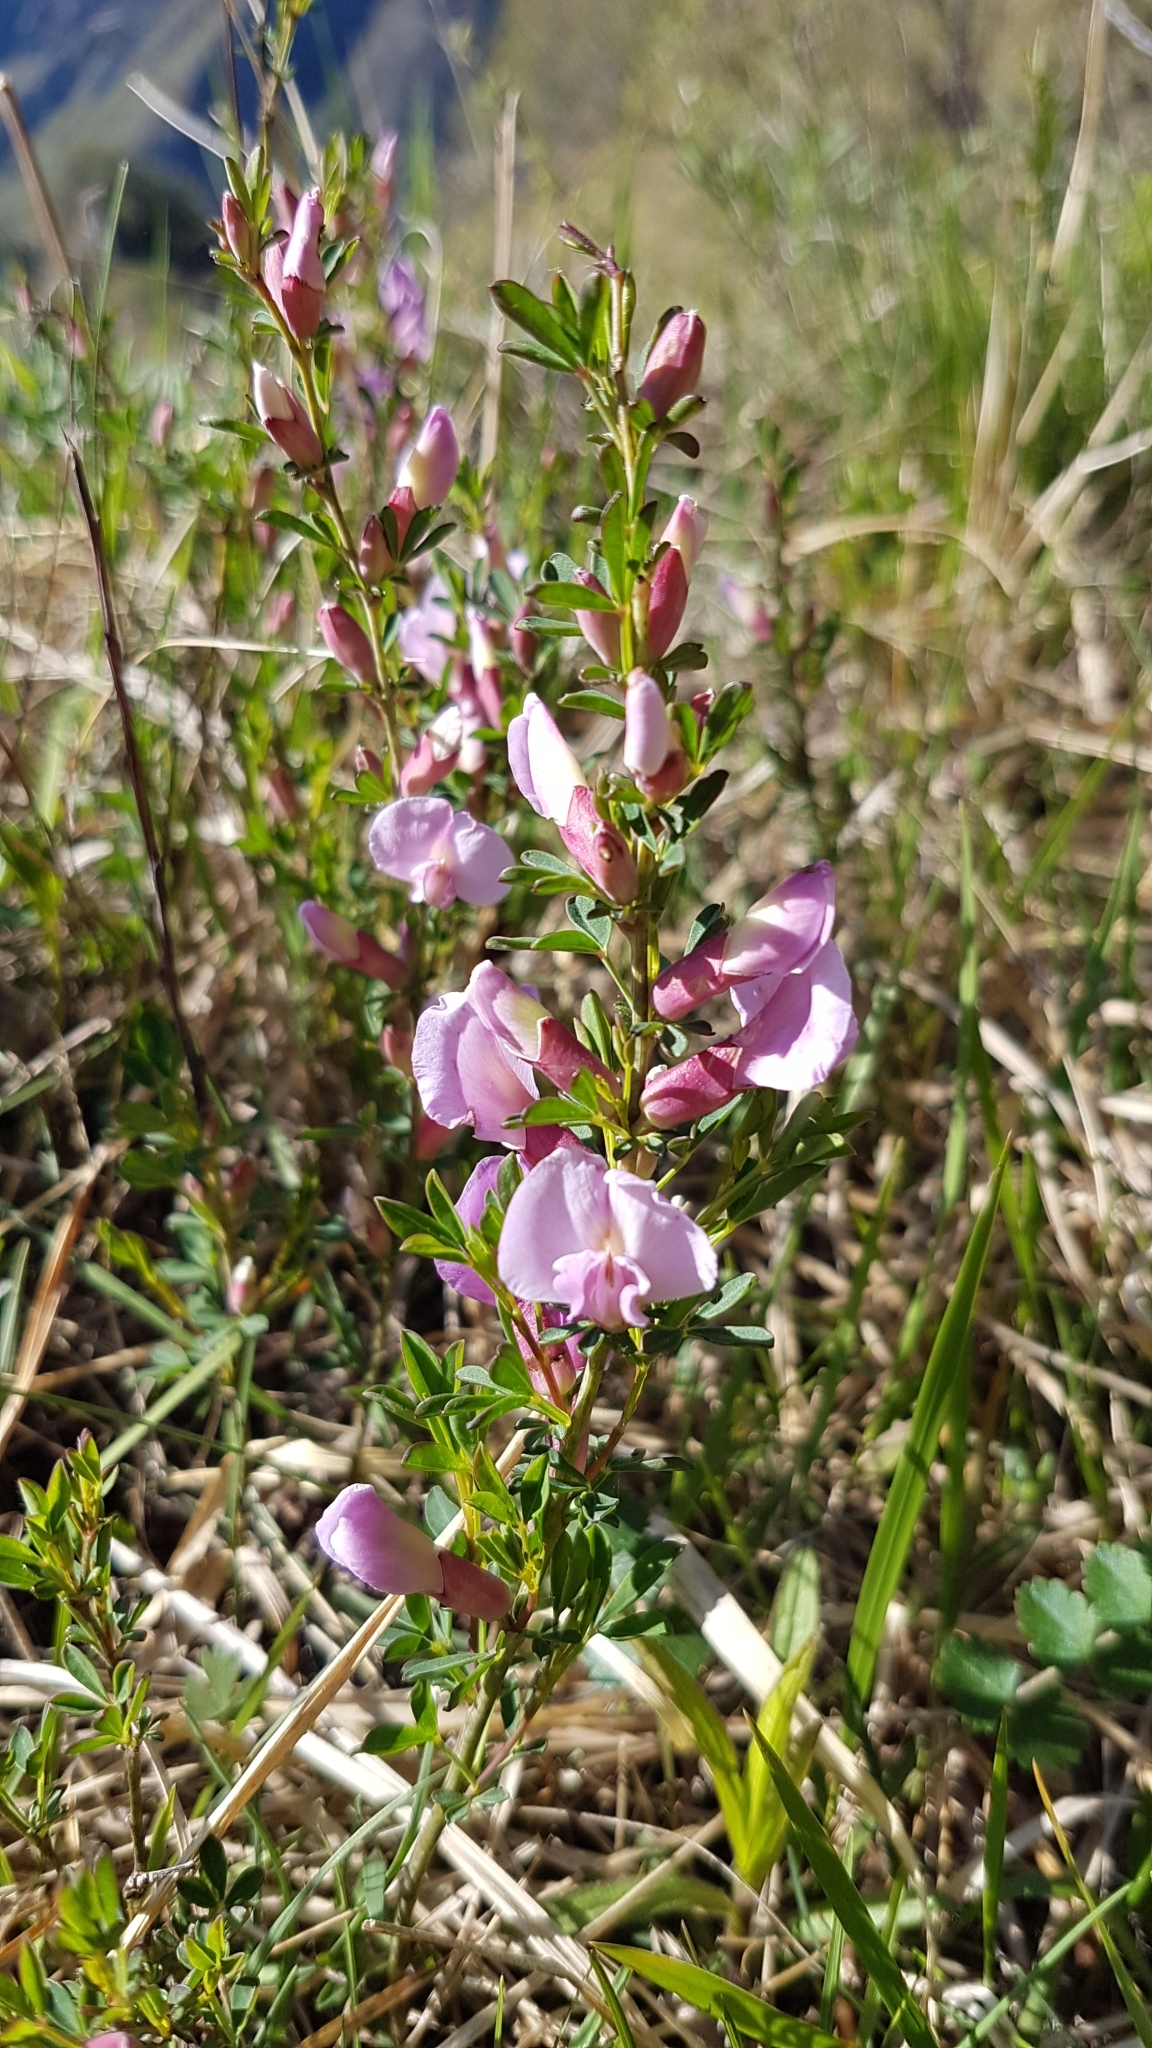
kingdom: Plantae
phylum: Tracheophyta
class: Magnoliopsida
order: Fabales
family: Fabaceae
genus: Chamaecytisus
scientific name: Chamaecytisus purpureus
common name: Purple broom
